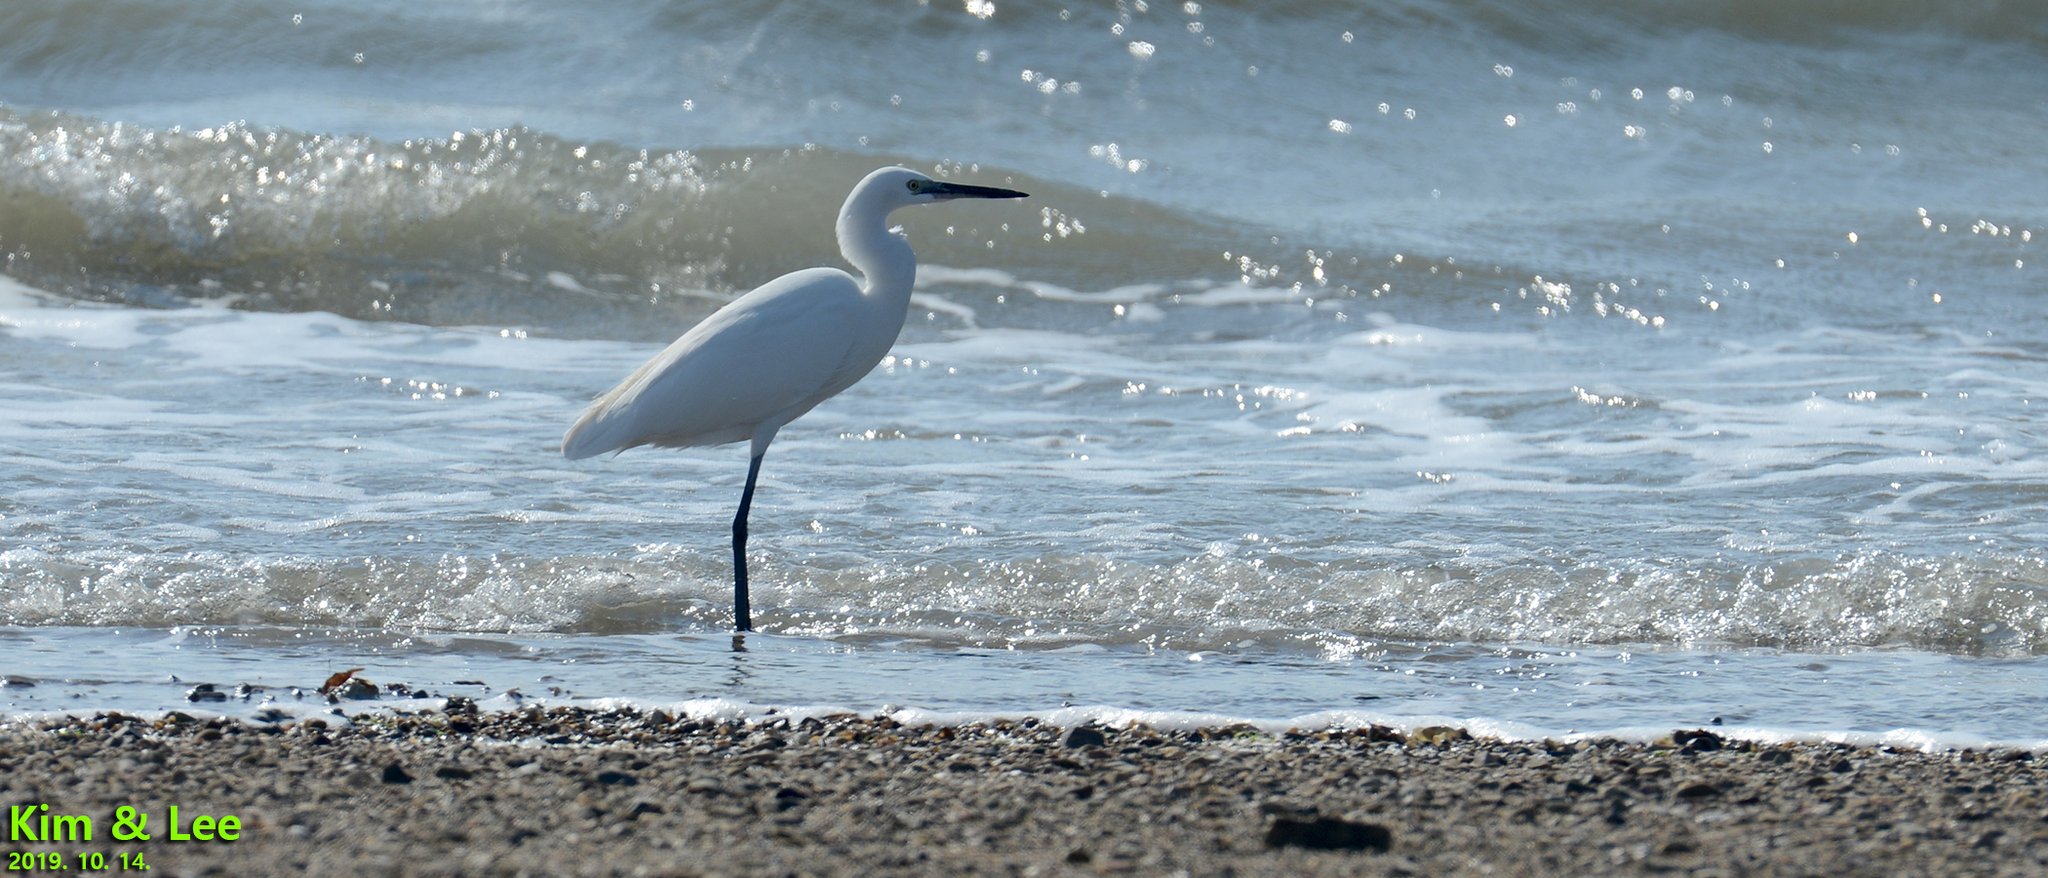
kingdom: Animalia
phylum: Chordata
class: Aves
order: Pelecaniformes
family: Ardeidae
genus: Egretta
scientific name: Egretta garzetta
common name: Little egret
